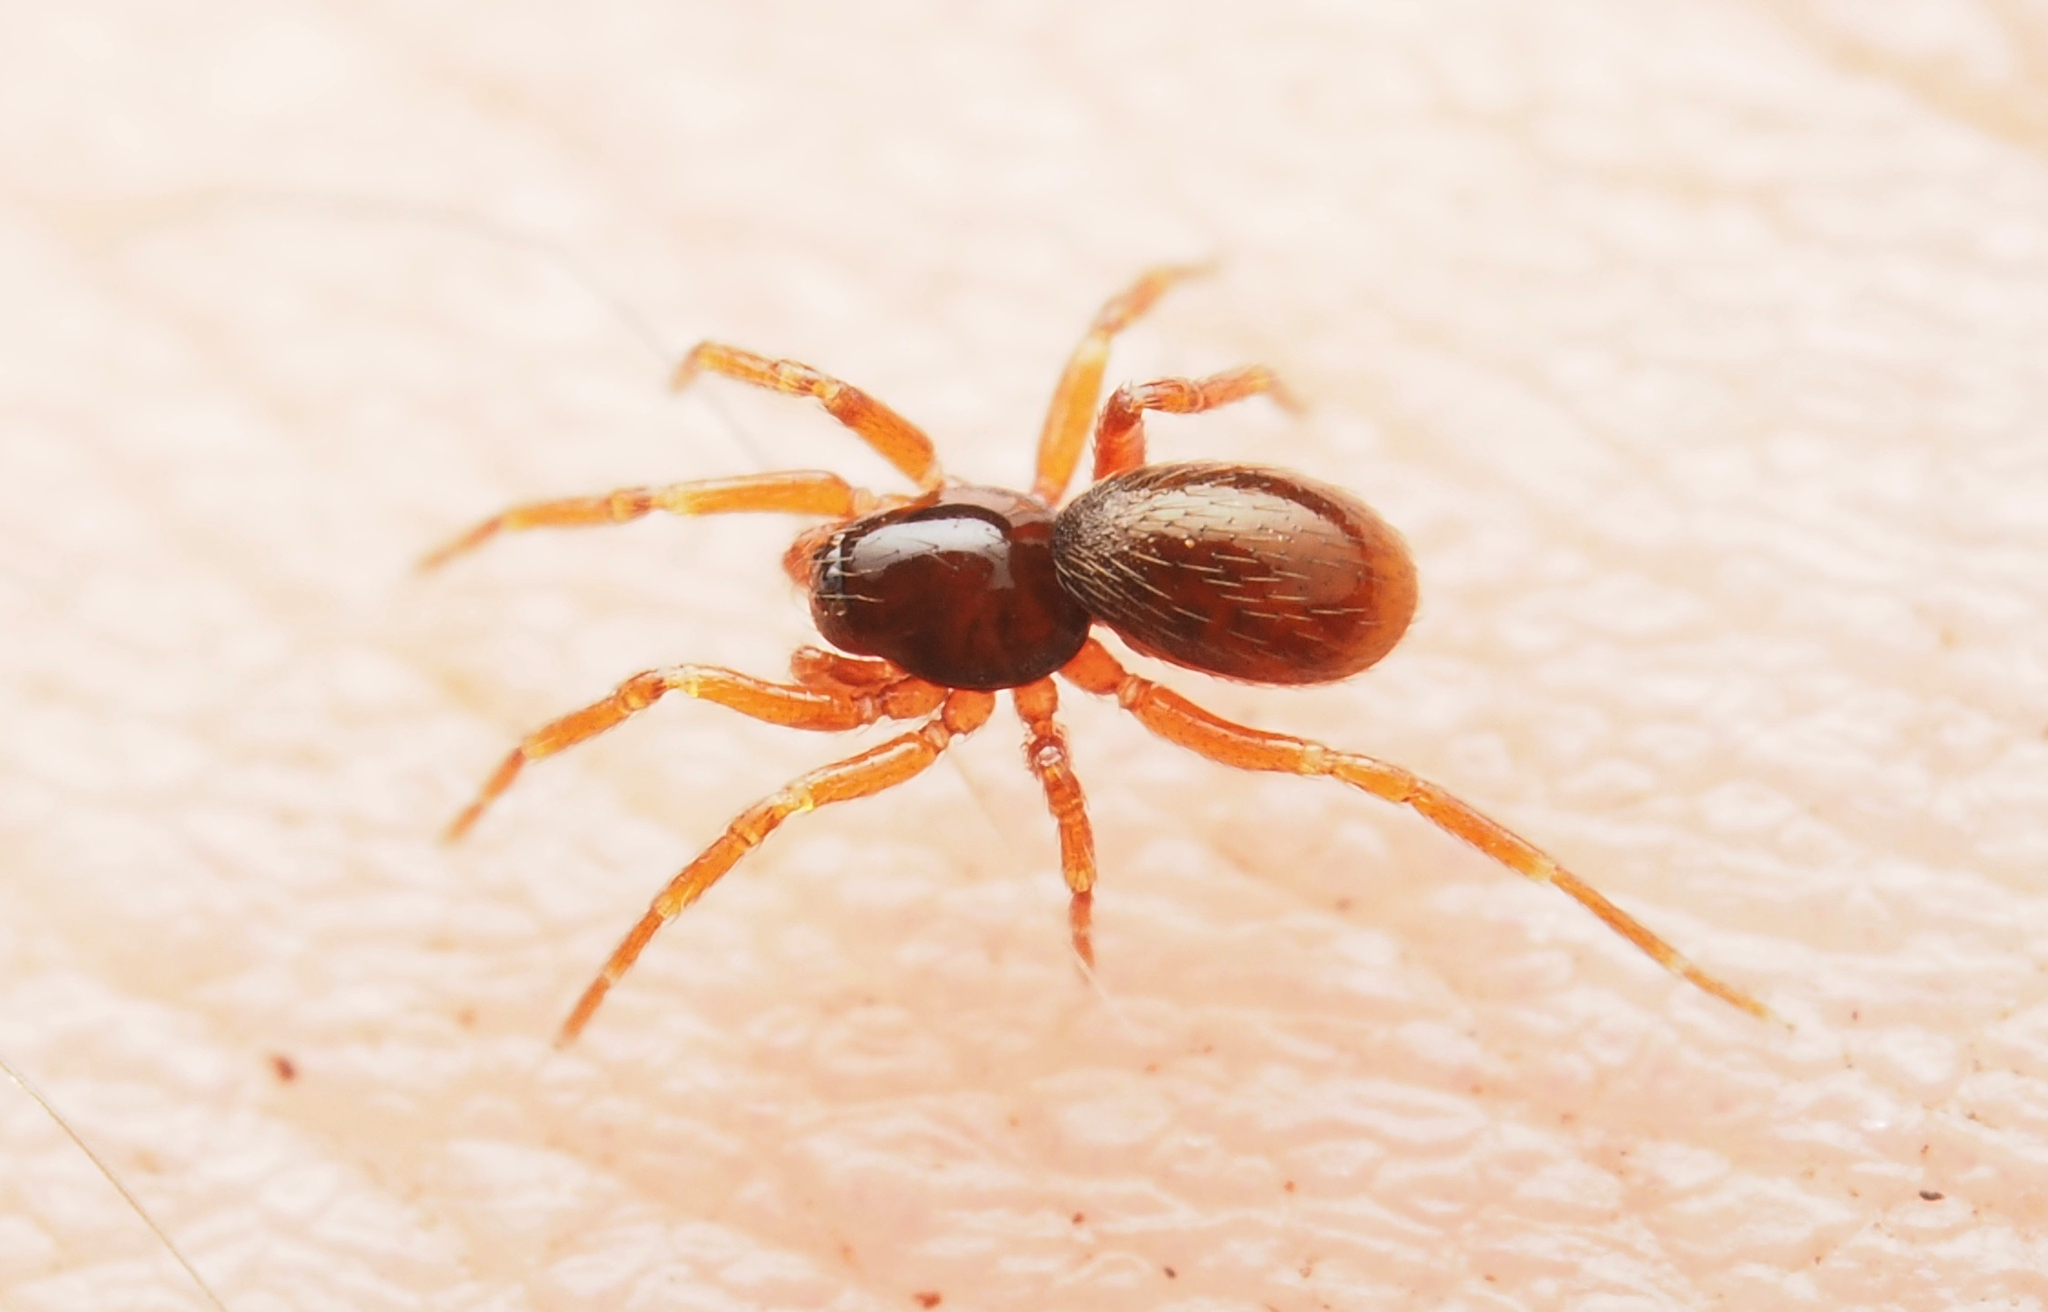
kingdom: Animalia
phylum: Arthropoda
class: Arachnida
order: Araneae
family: Oonopidae
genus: Pelicinus
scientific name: Pelicinus
